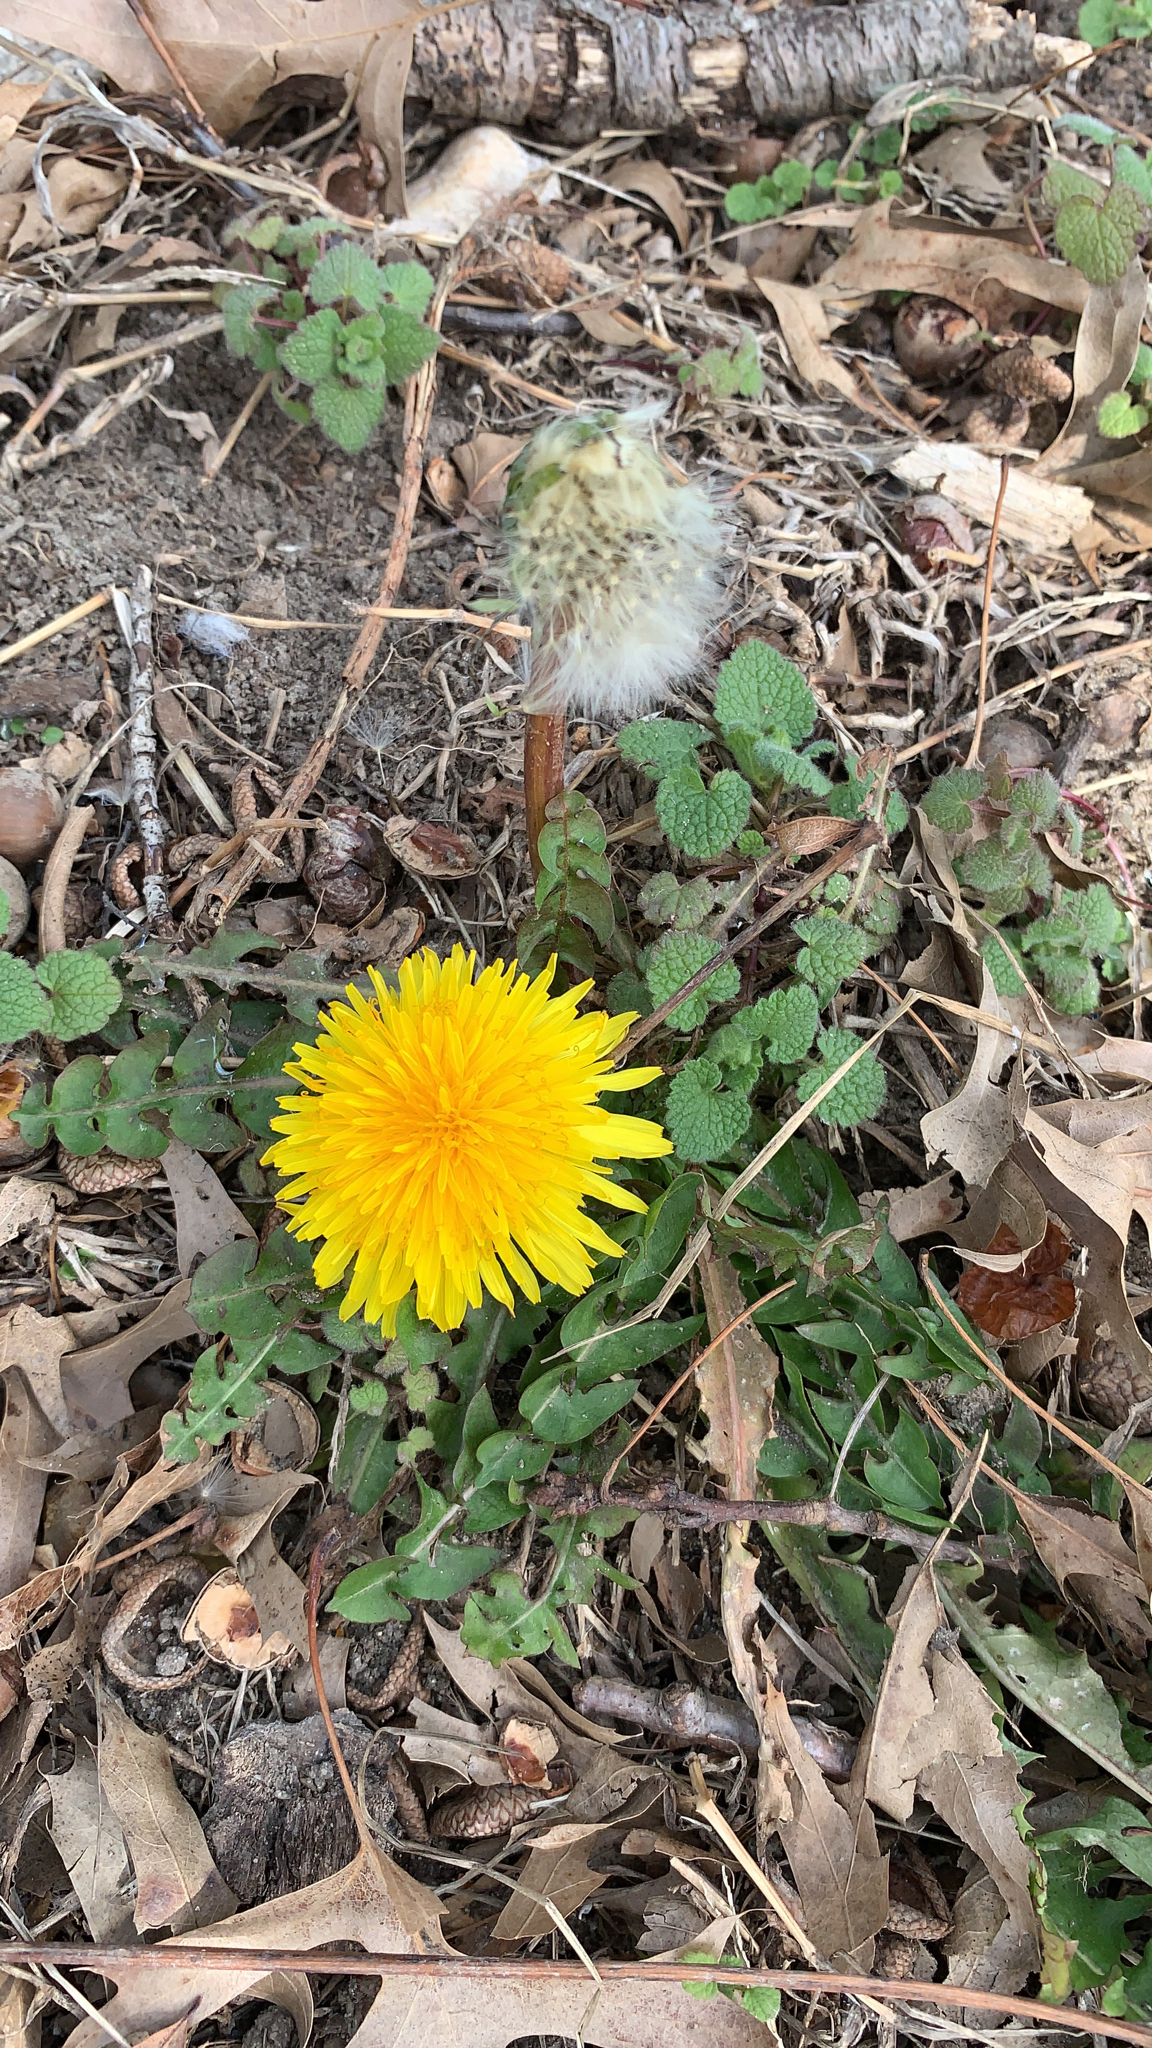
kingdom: Plantae
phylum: Tracheophyta
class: Magnoliopsida
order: Asterales
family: Asteraceae
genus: Taraxacum
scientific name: Taraxacum officinale
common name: Common dandelion
